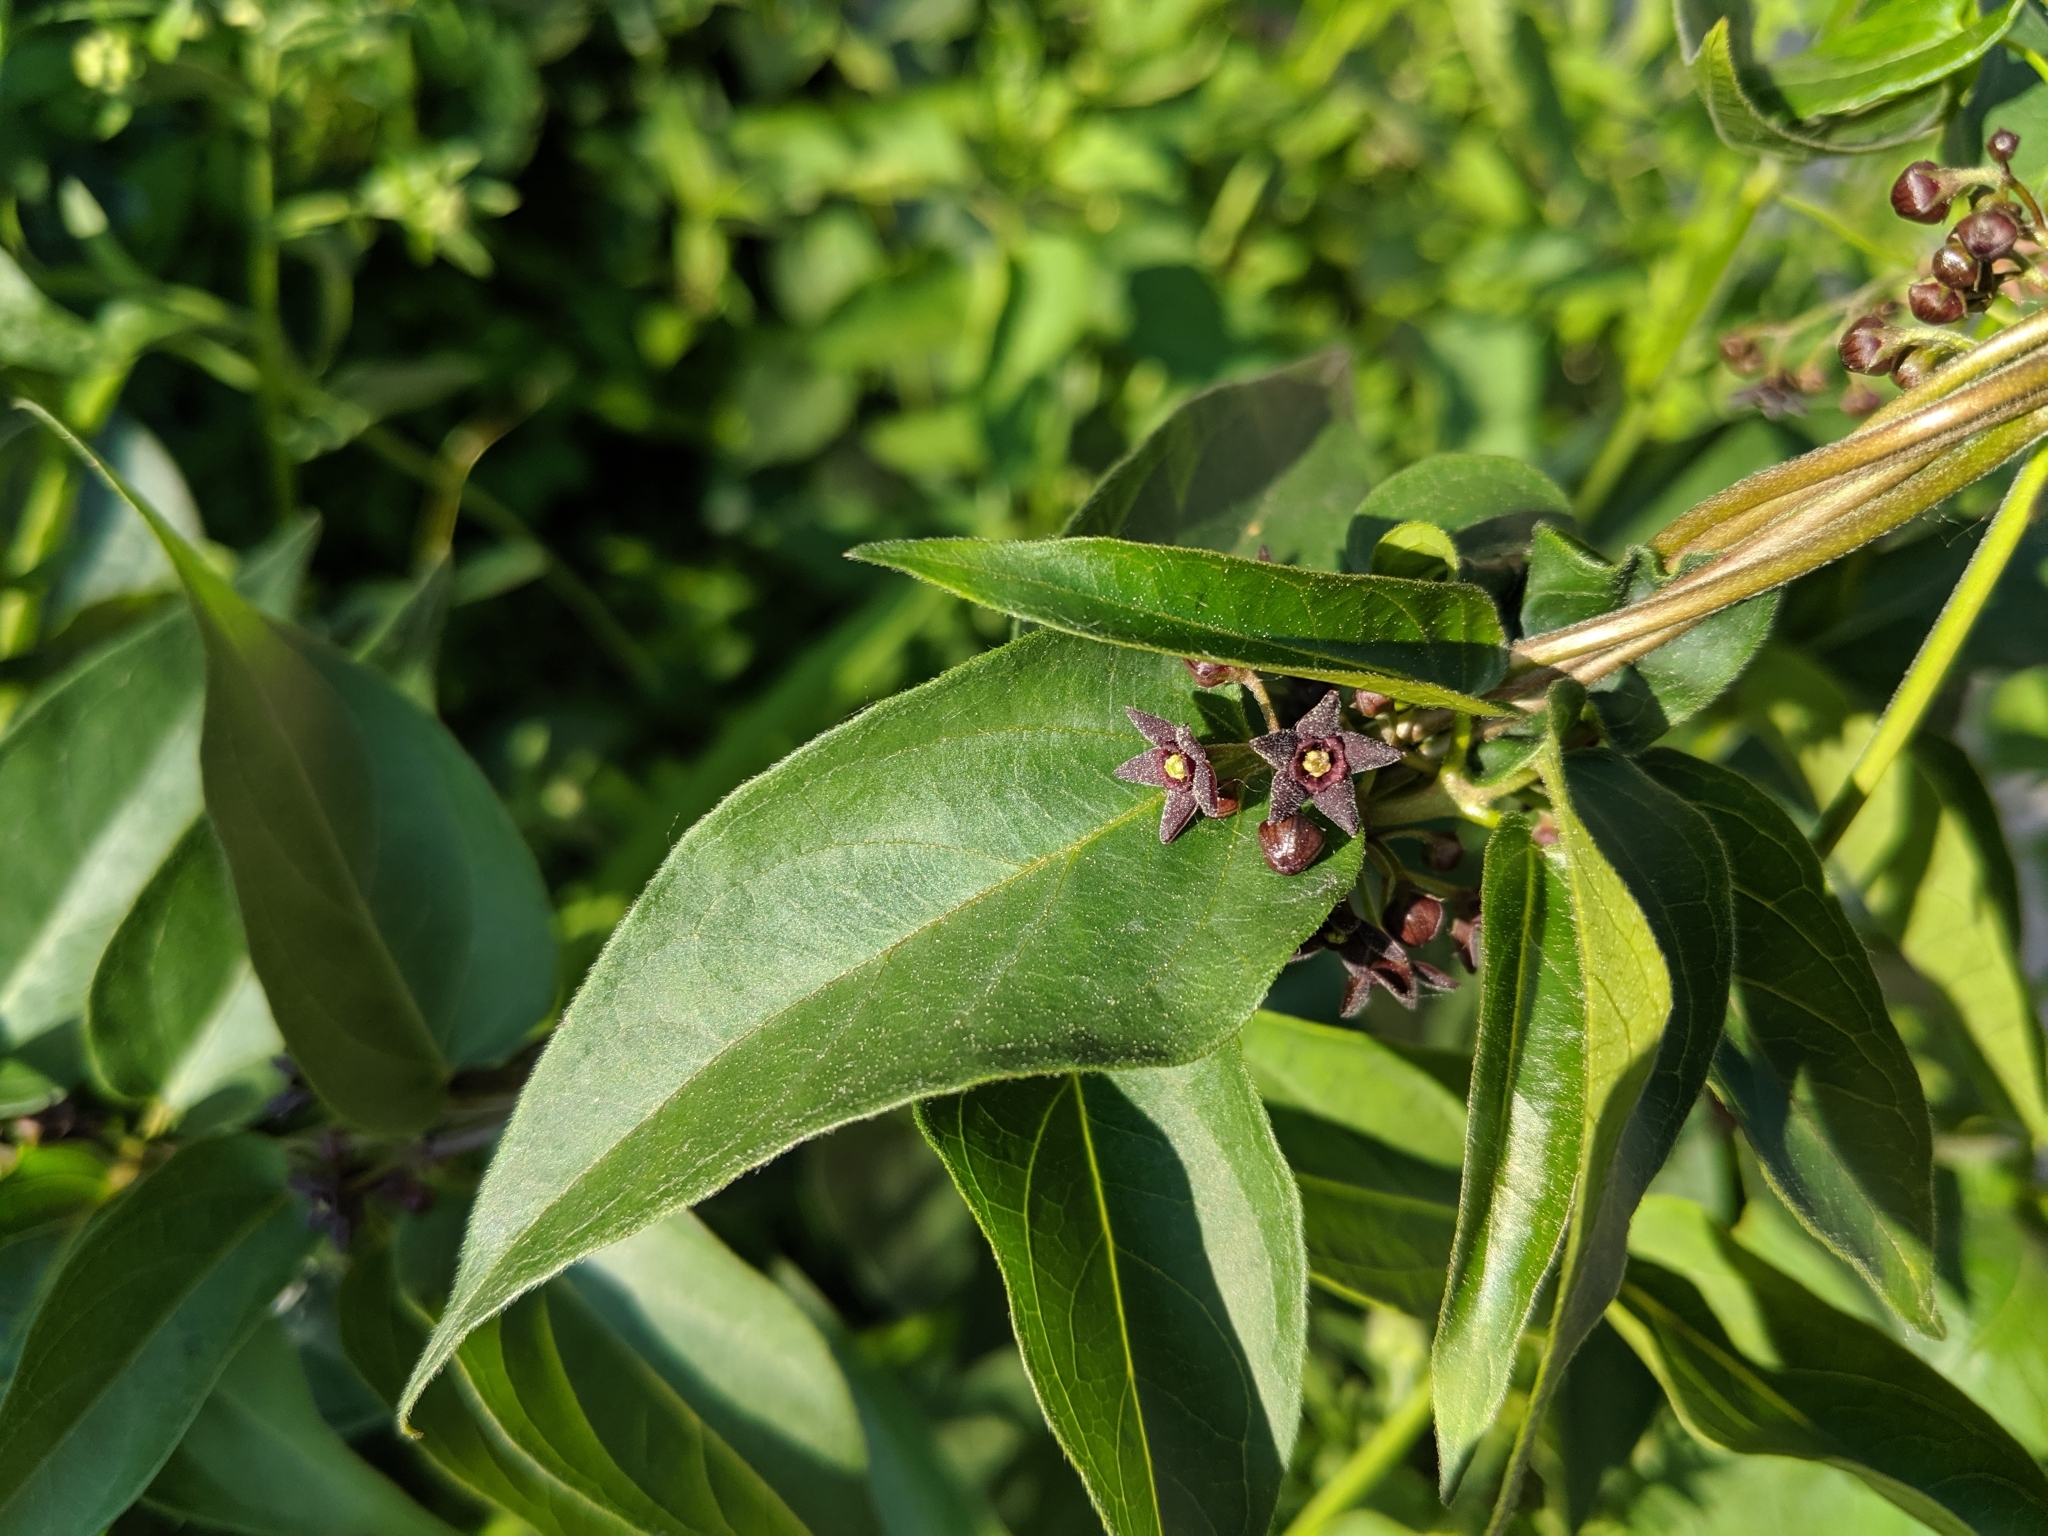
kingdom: Plantae
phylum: Tracheophyta
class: Magnoliopsida
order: Gentianales
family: Apocynaceae
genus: Vincetoxicum
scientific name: Vincetoxicum nigrum
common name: Black swallow-wort
